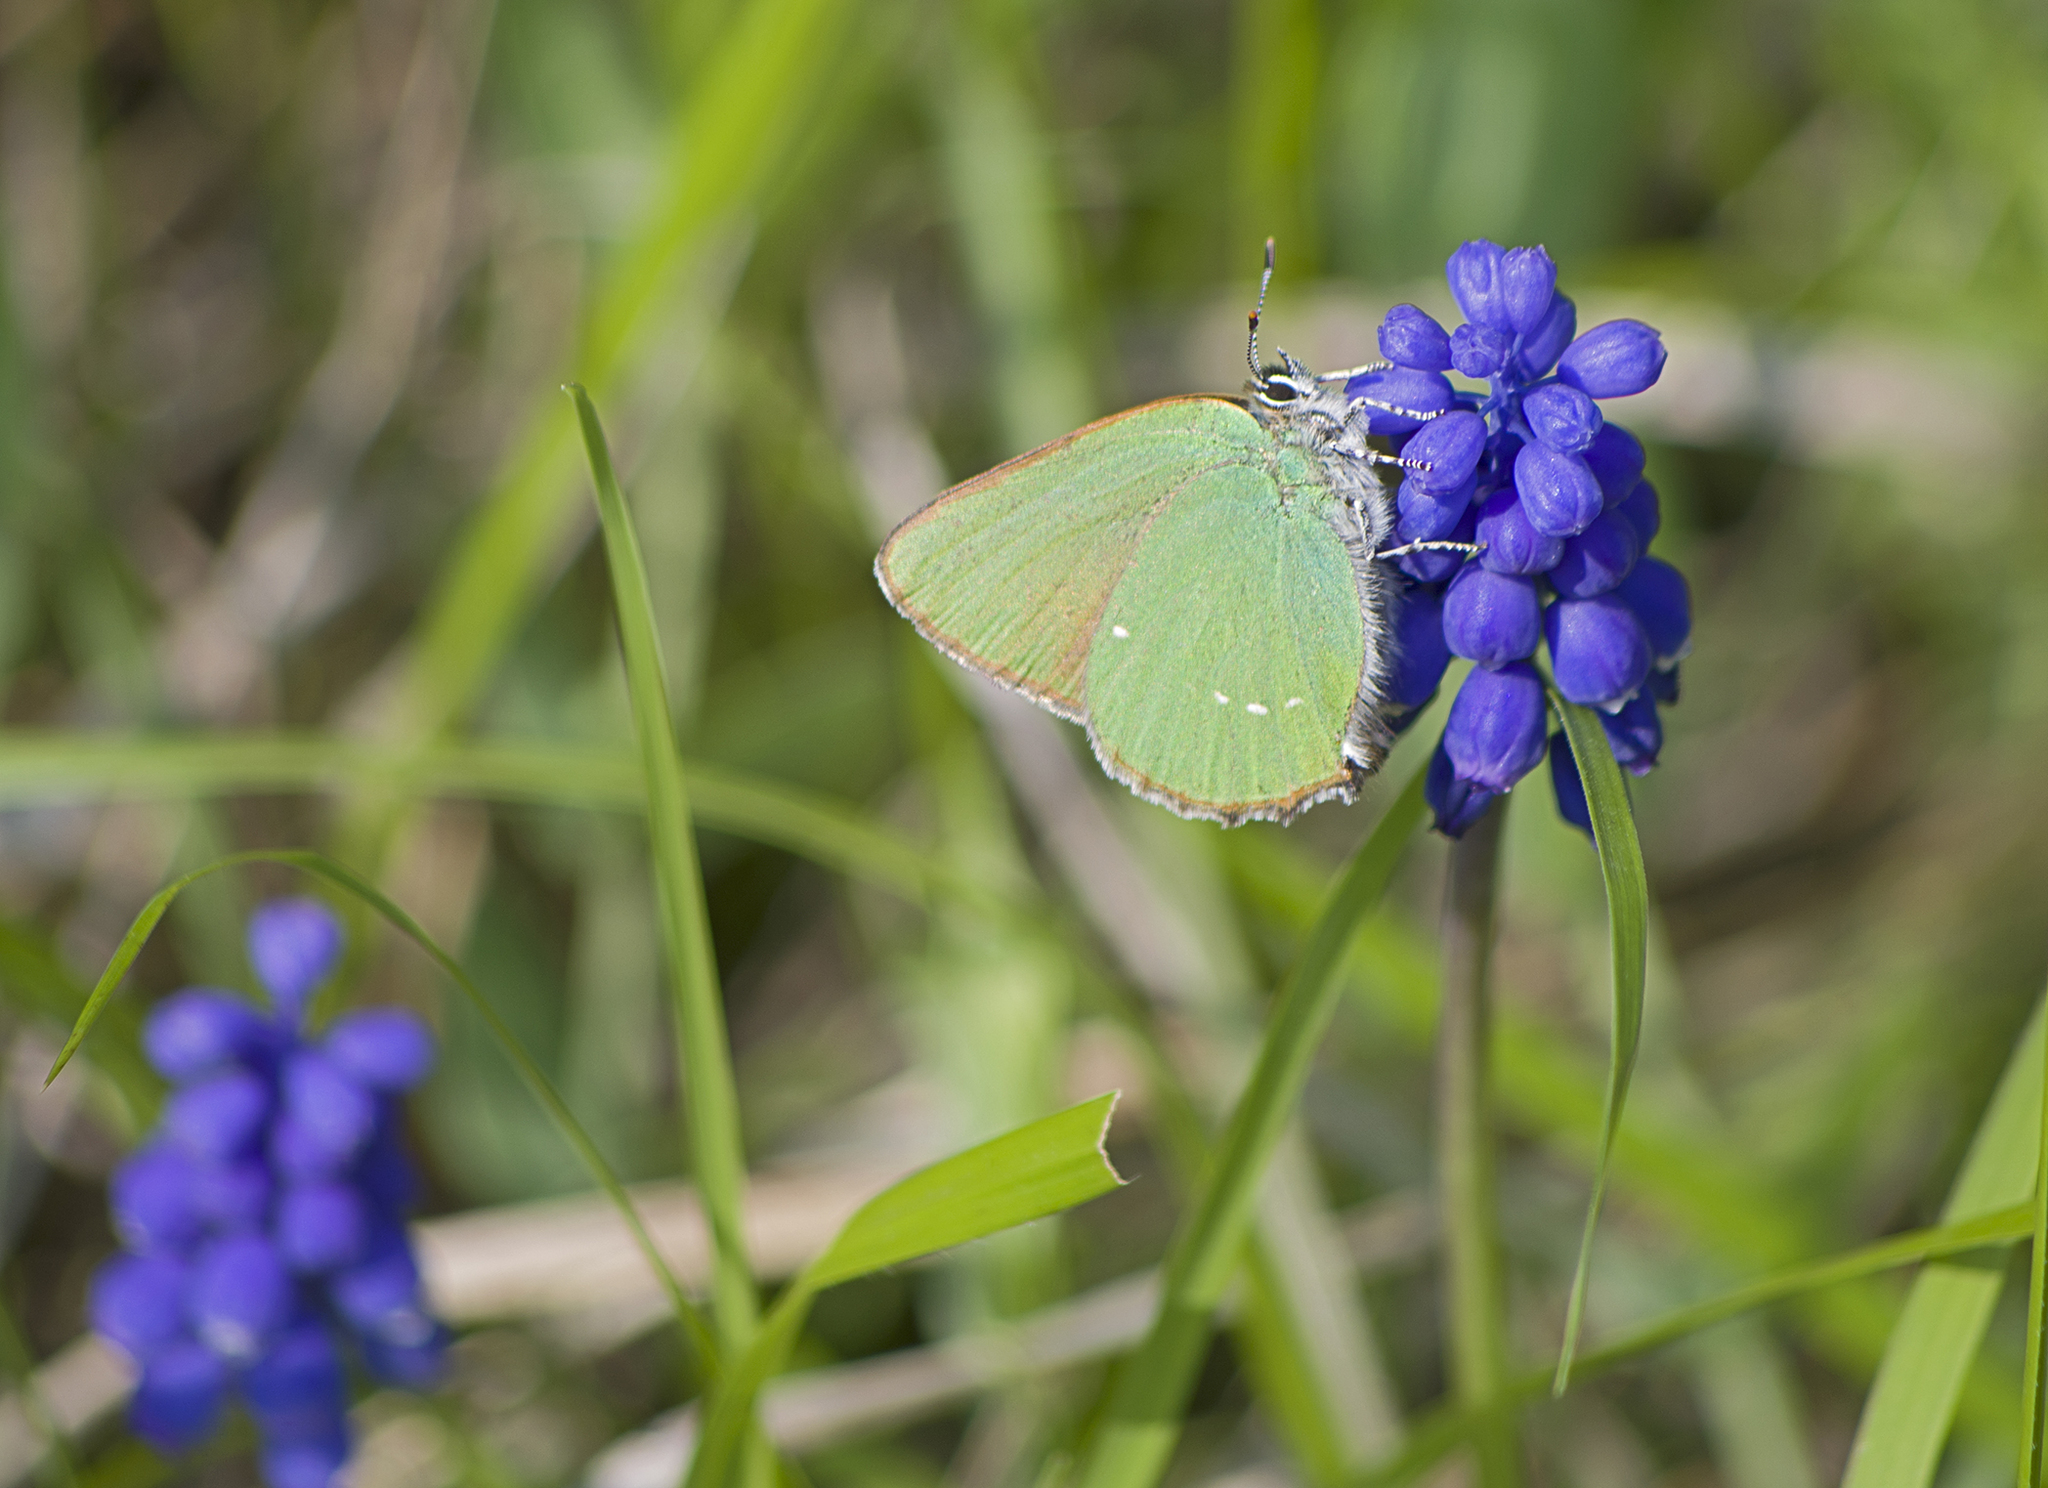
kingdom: Animalia
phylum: Arthropoda
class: Insecta
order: Lepidoptera
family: Lycaenidae
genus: Callophrys
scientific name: Callophrys rubi
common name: Green hairstreak
